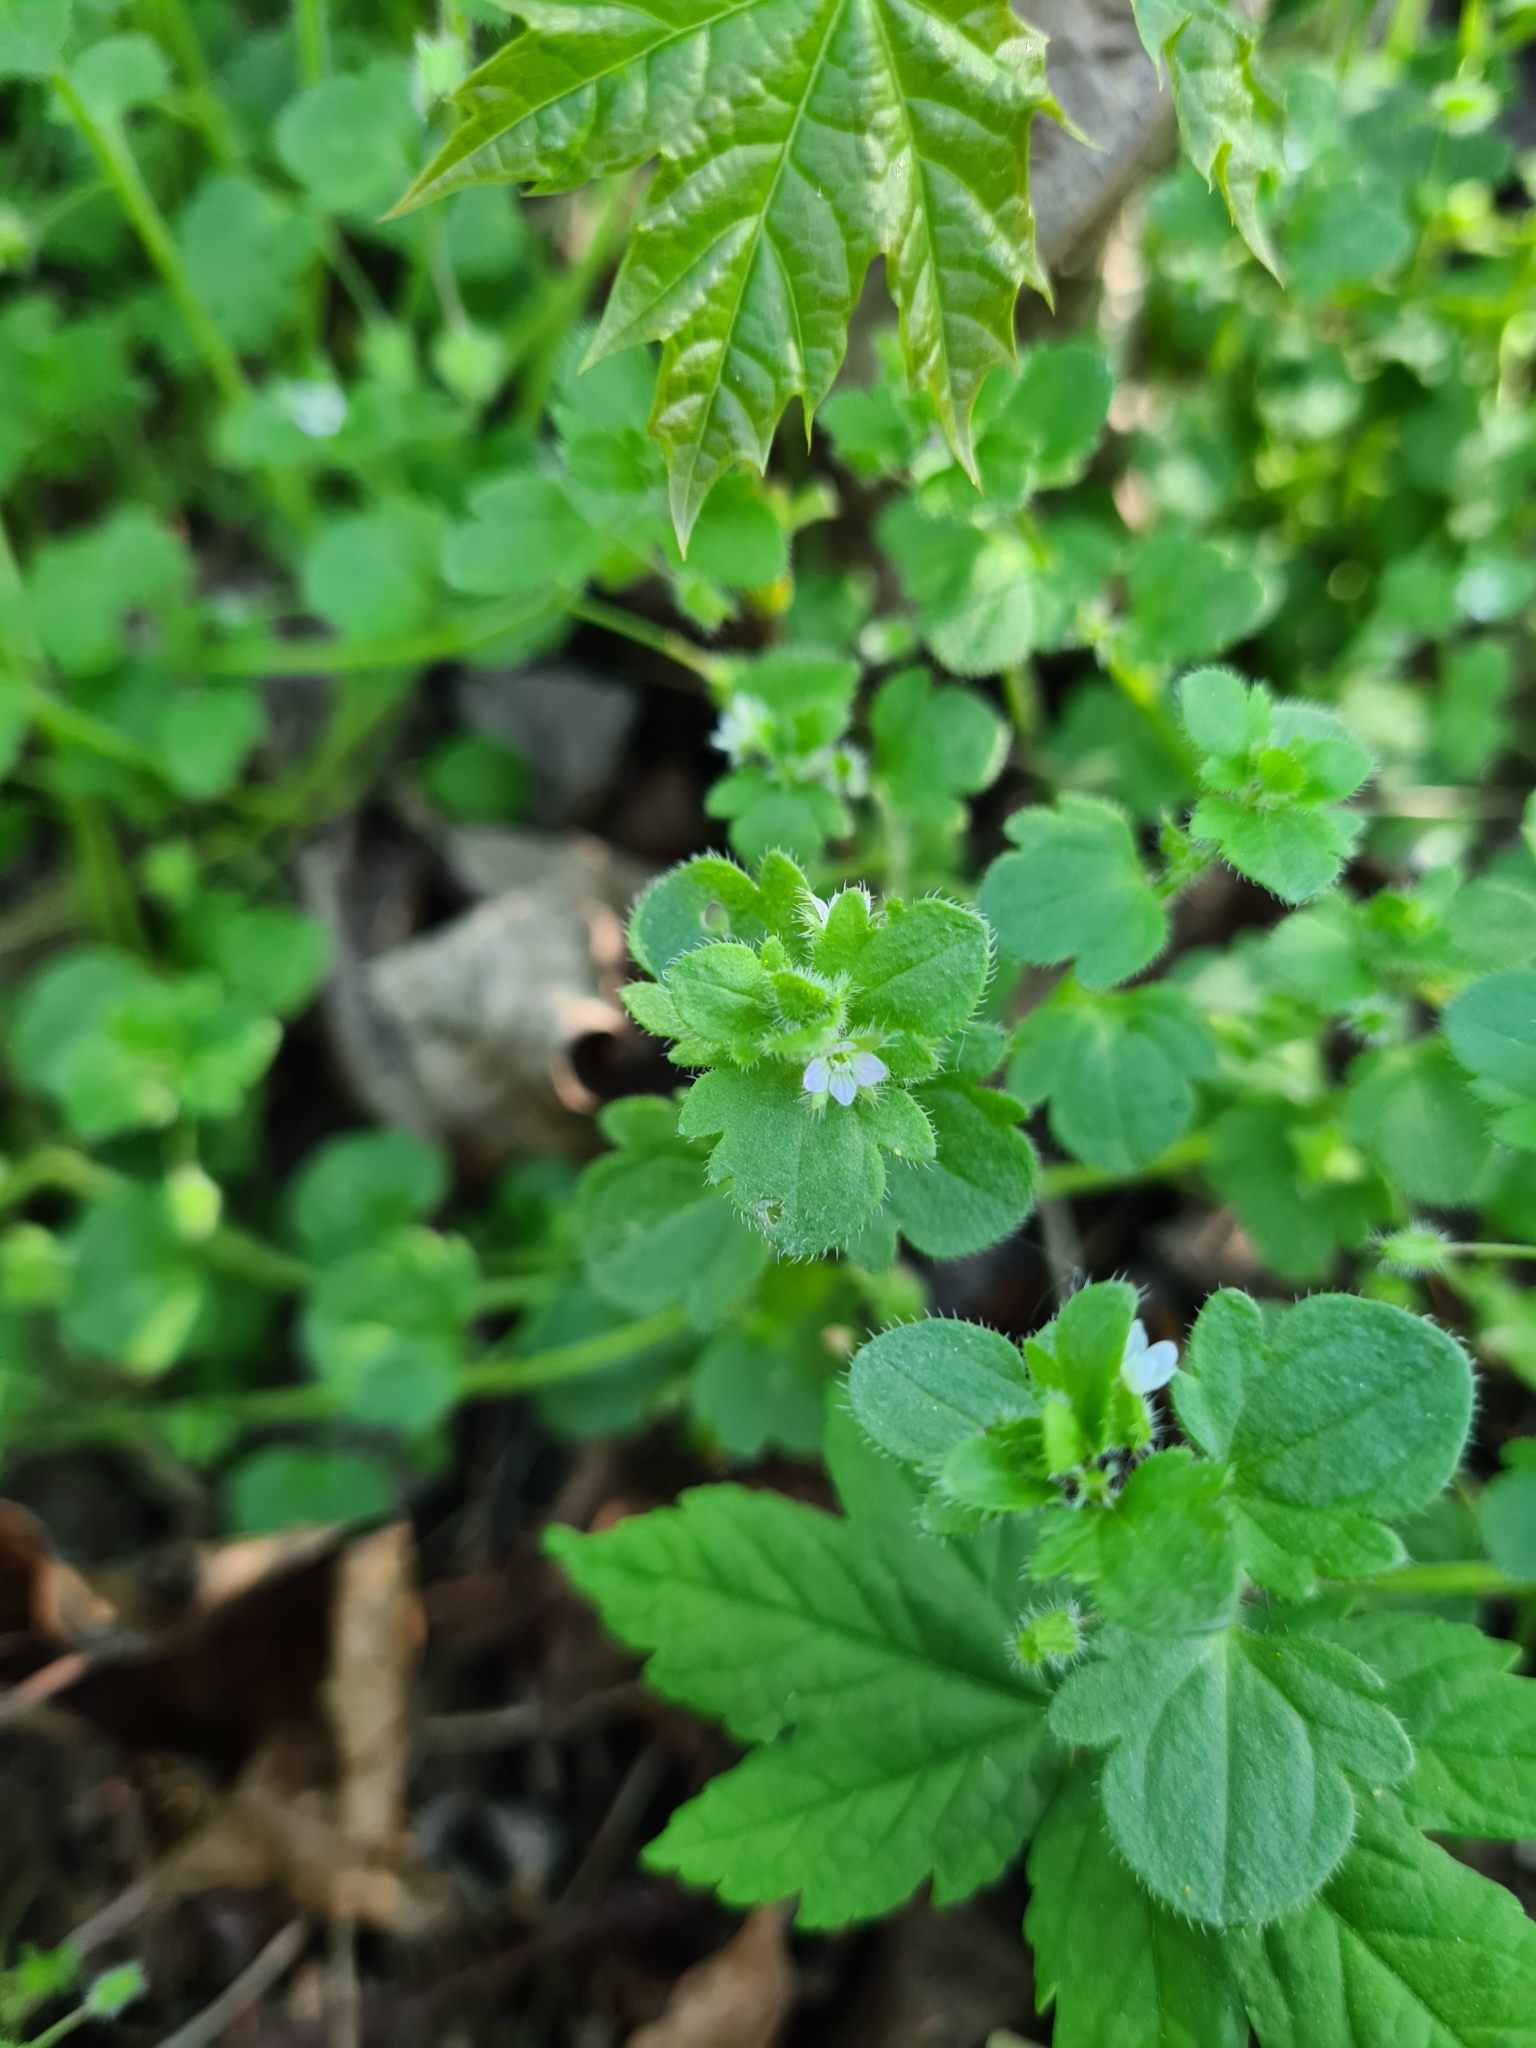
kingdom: Plantae
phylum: Tracheophyta
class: Magnoliopsida
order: Lamiales
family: Plantaginaceae
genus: Veronica
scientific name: Veronica sublobata
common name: False ivy-leaved speedwell
